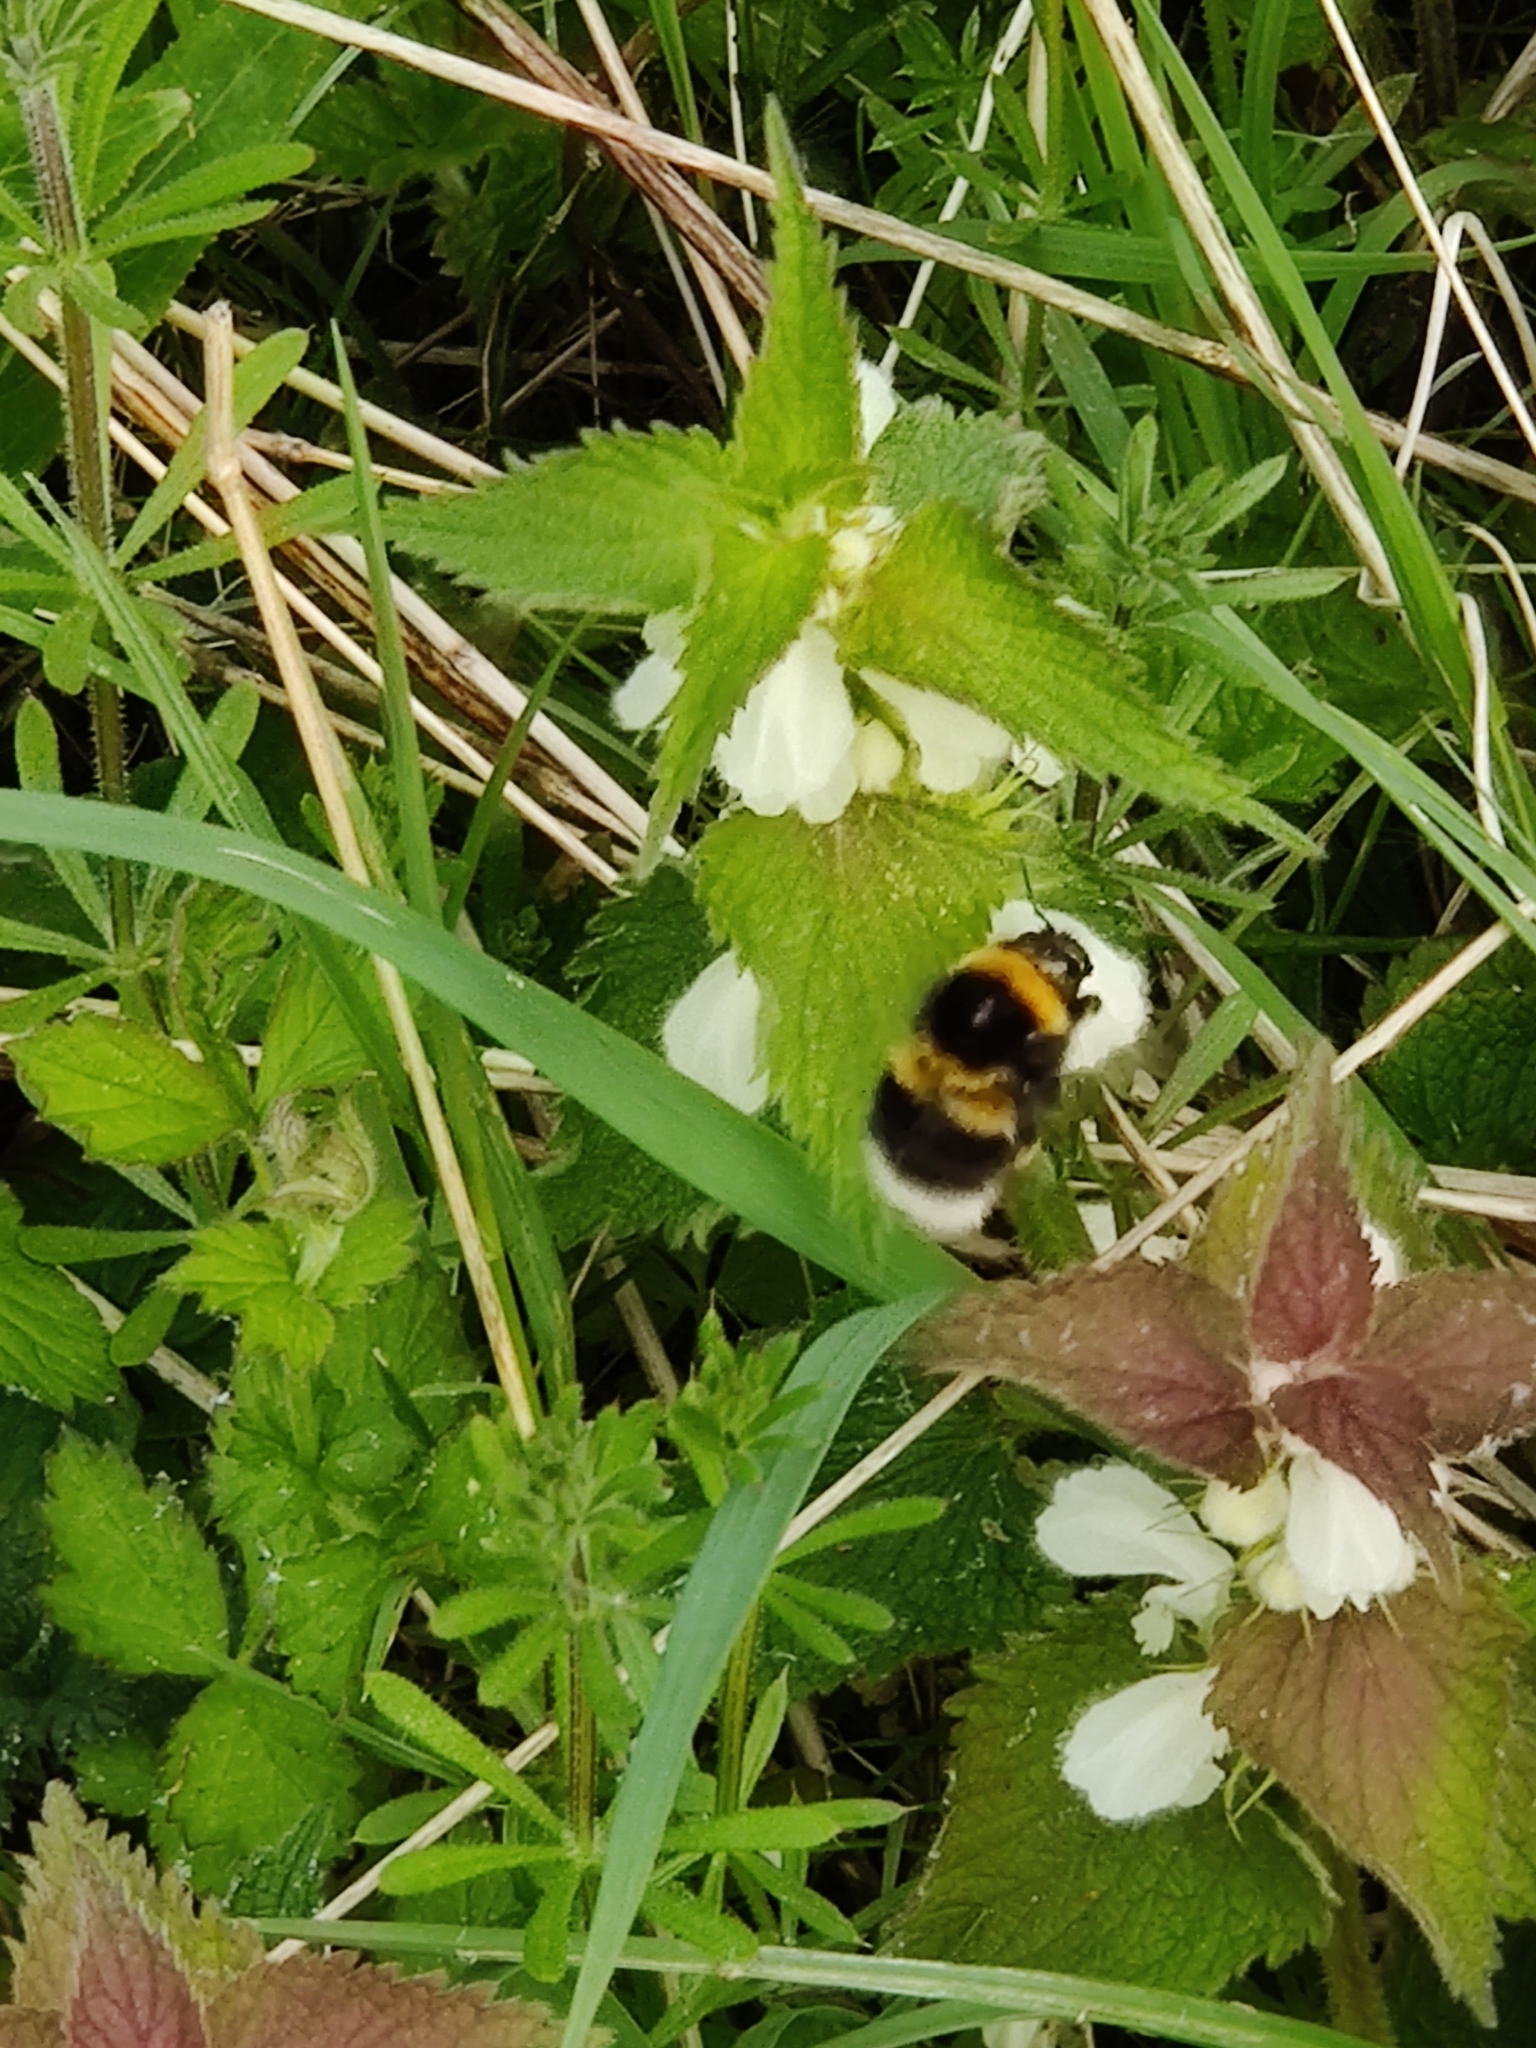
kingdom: Animalia
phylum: Arthropoda
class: Insecta
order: Hymenoptera
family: Apidae
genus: Bombus
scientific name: Bombus hortorum
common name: Garden bumblebee
